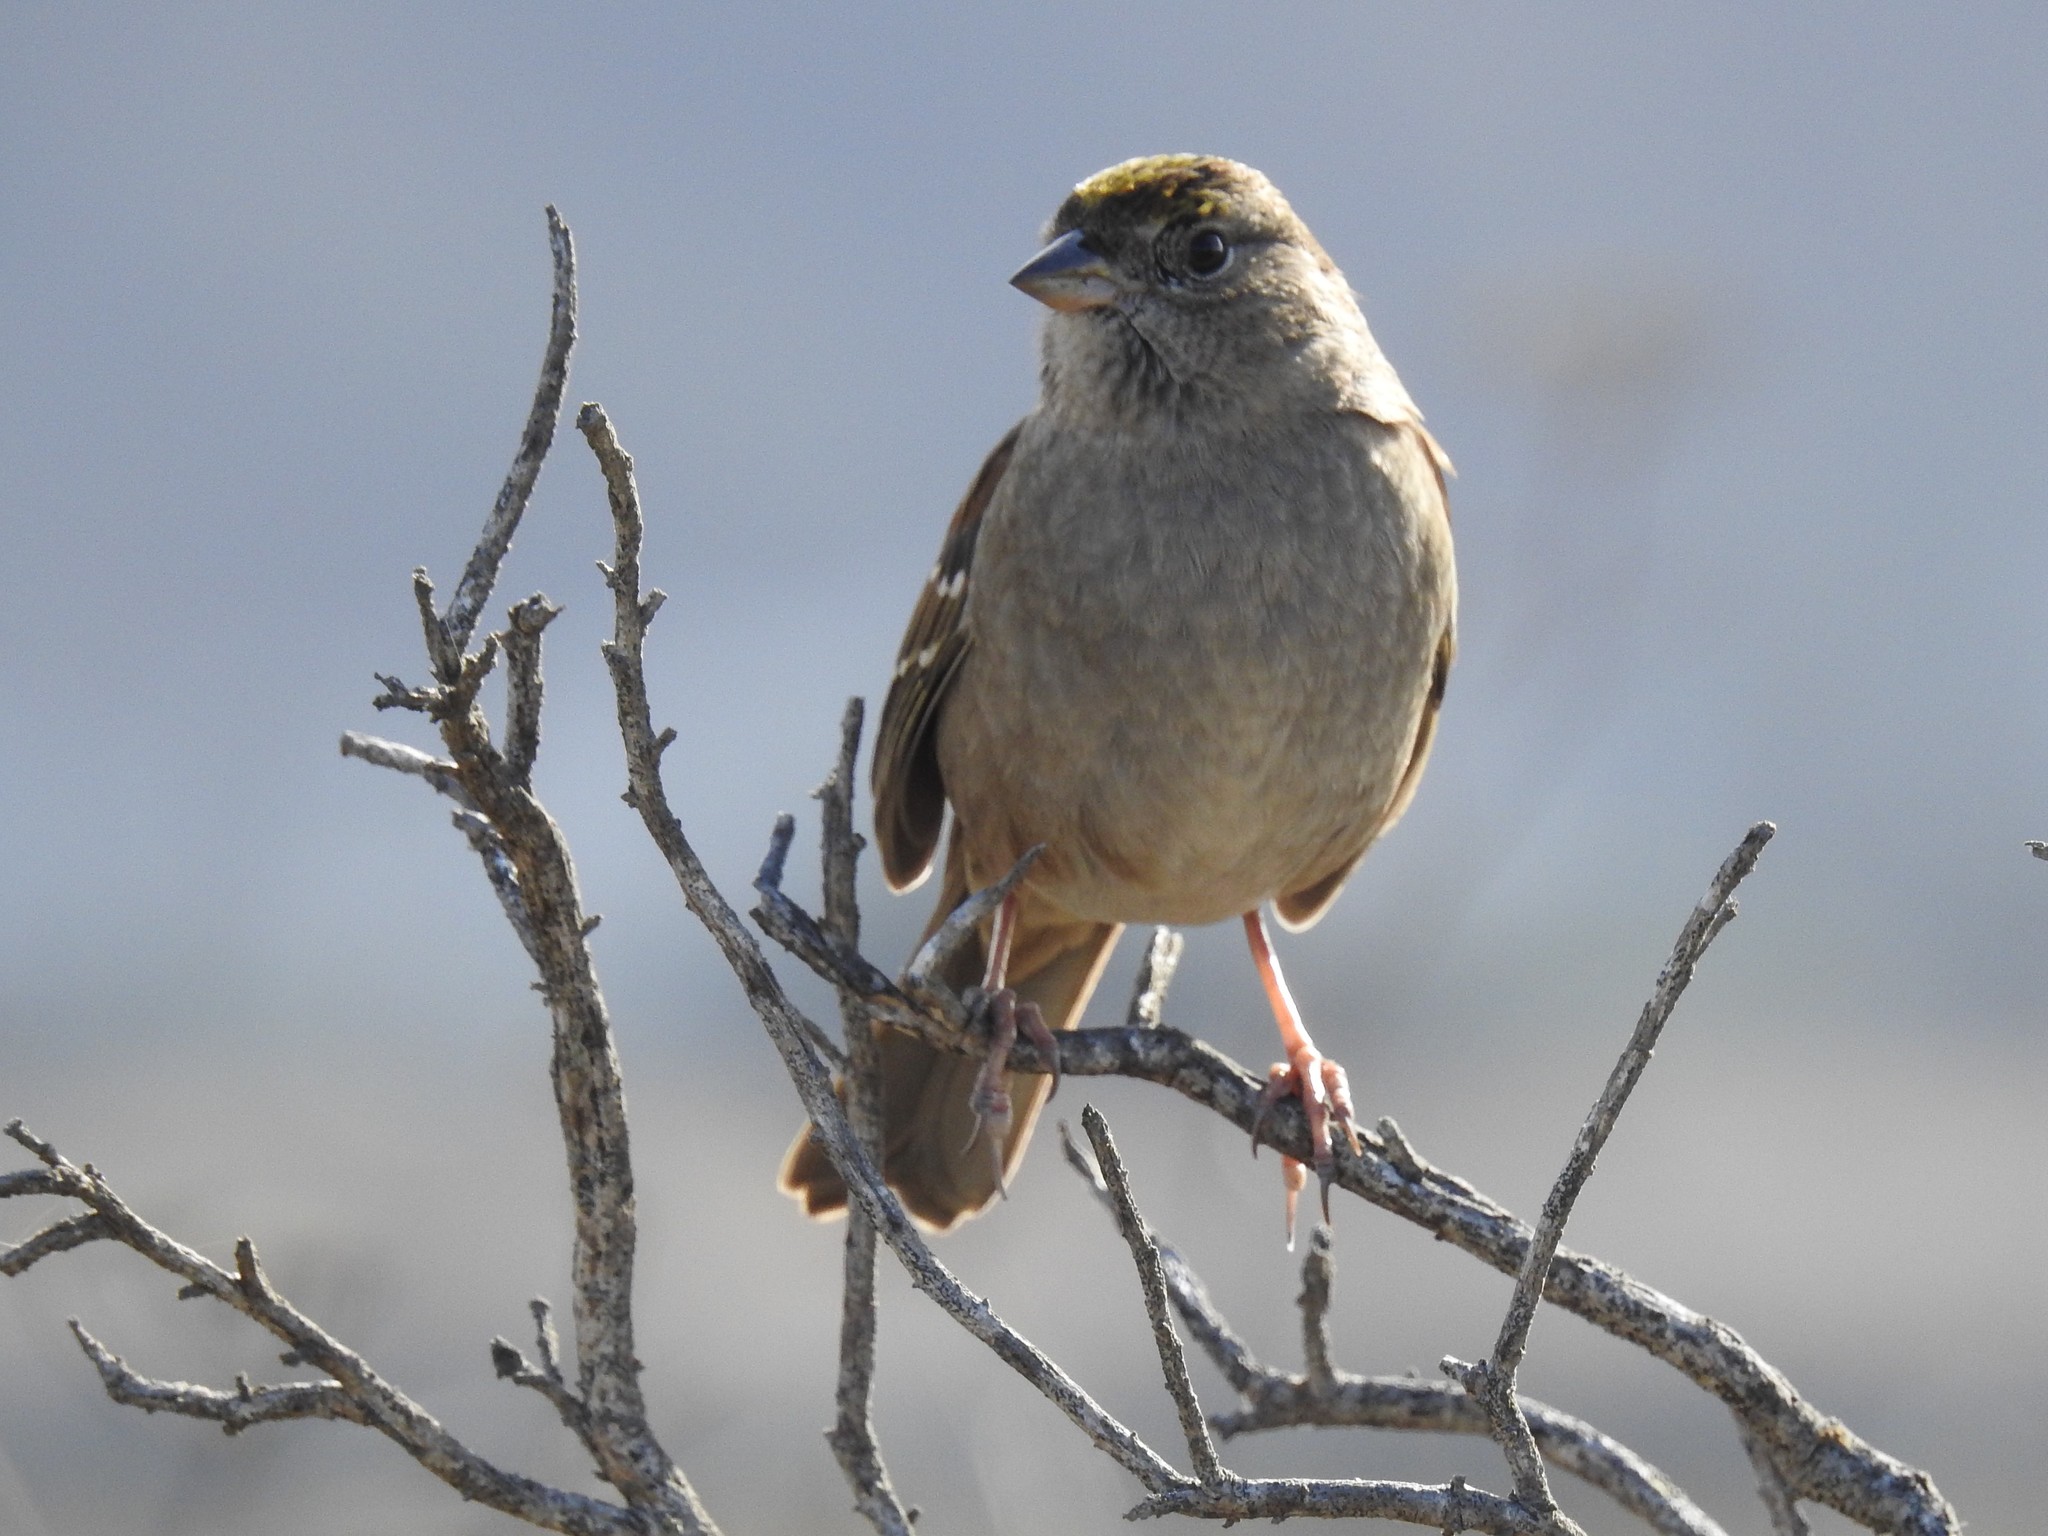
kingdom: Animalia
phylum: Chordata
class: Aves
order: Passeriformes
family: Passerellidae
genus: Zonotrichia
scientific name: Zonotrichia atricapilla
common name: Golden-crowned sparrow
